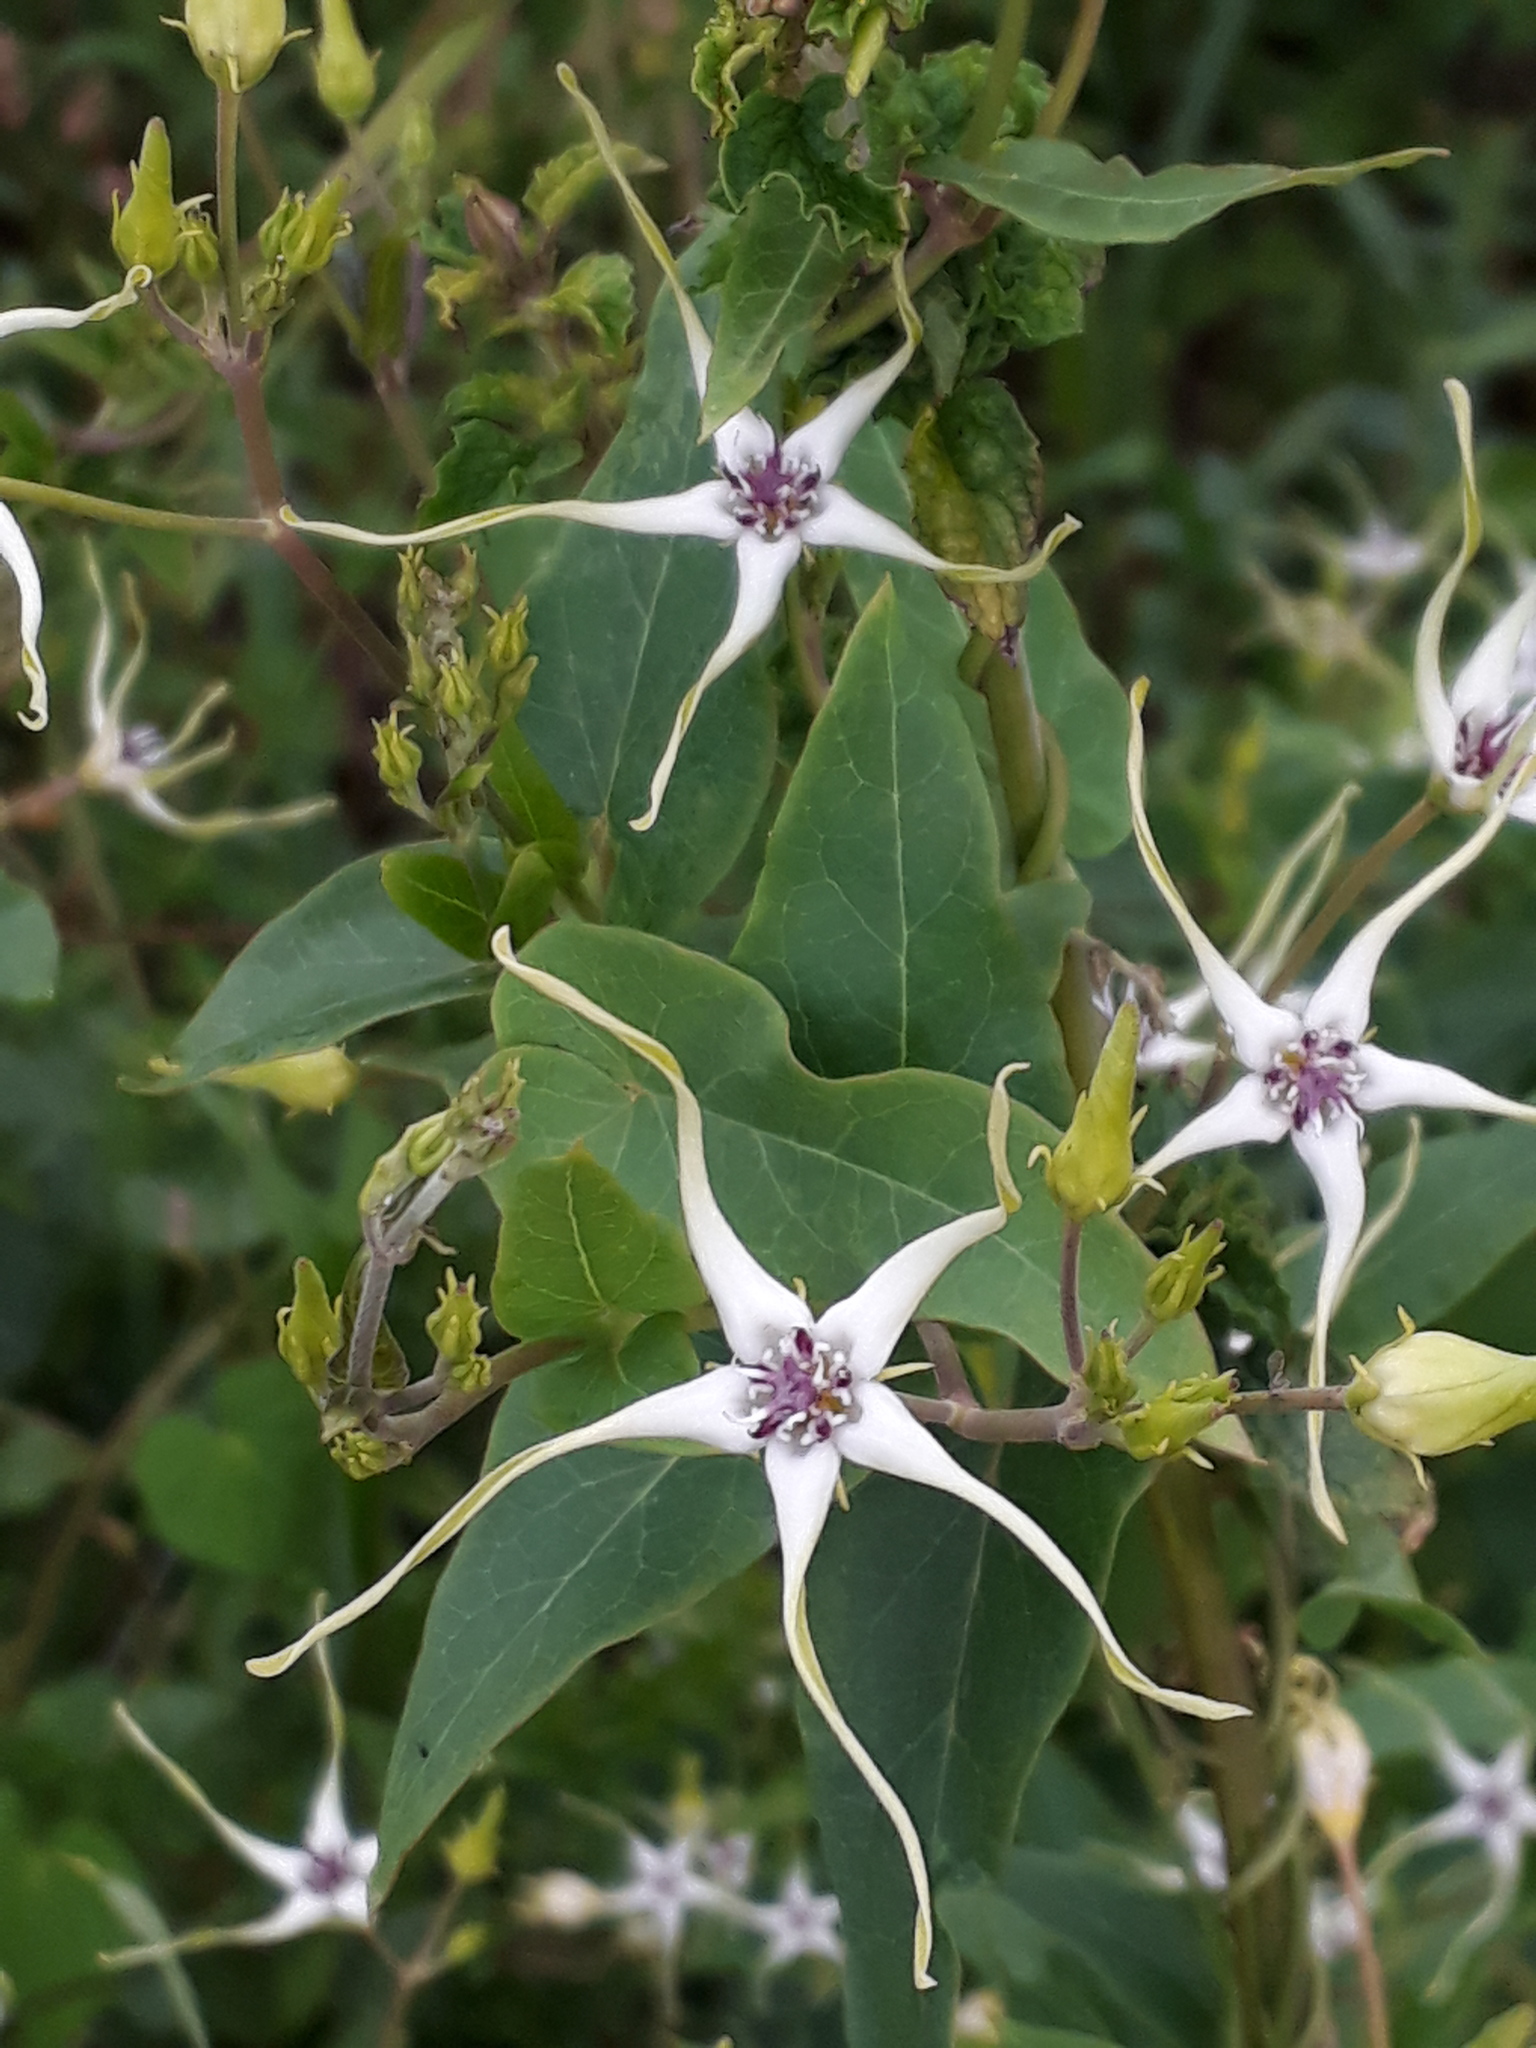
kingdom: Plantae
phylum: Tracheophyta
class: Magnoliopsida
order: Gentianales
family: Apocynaceae
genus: Oxypetalum
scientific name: Oxypetalum mosenii
